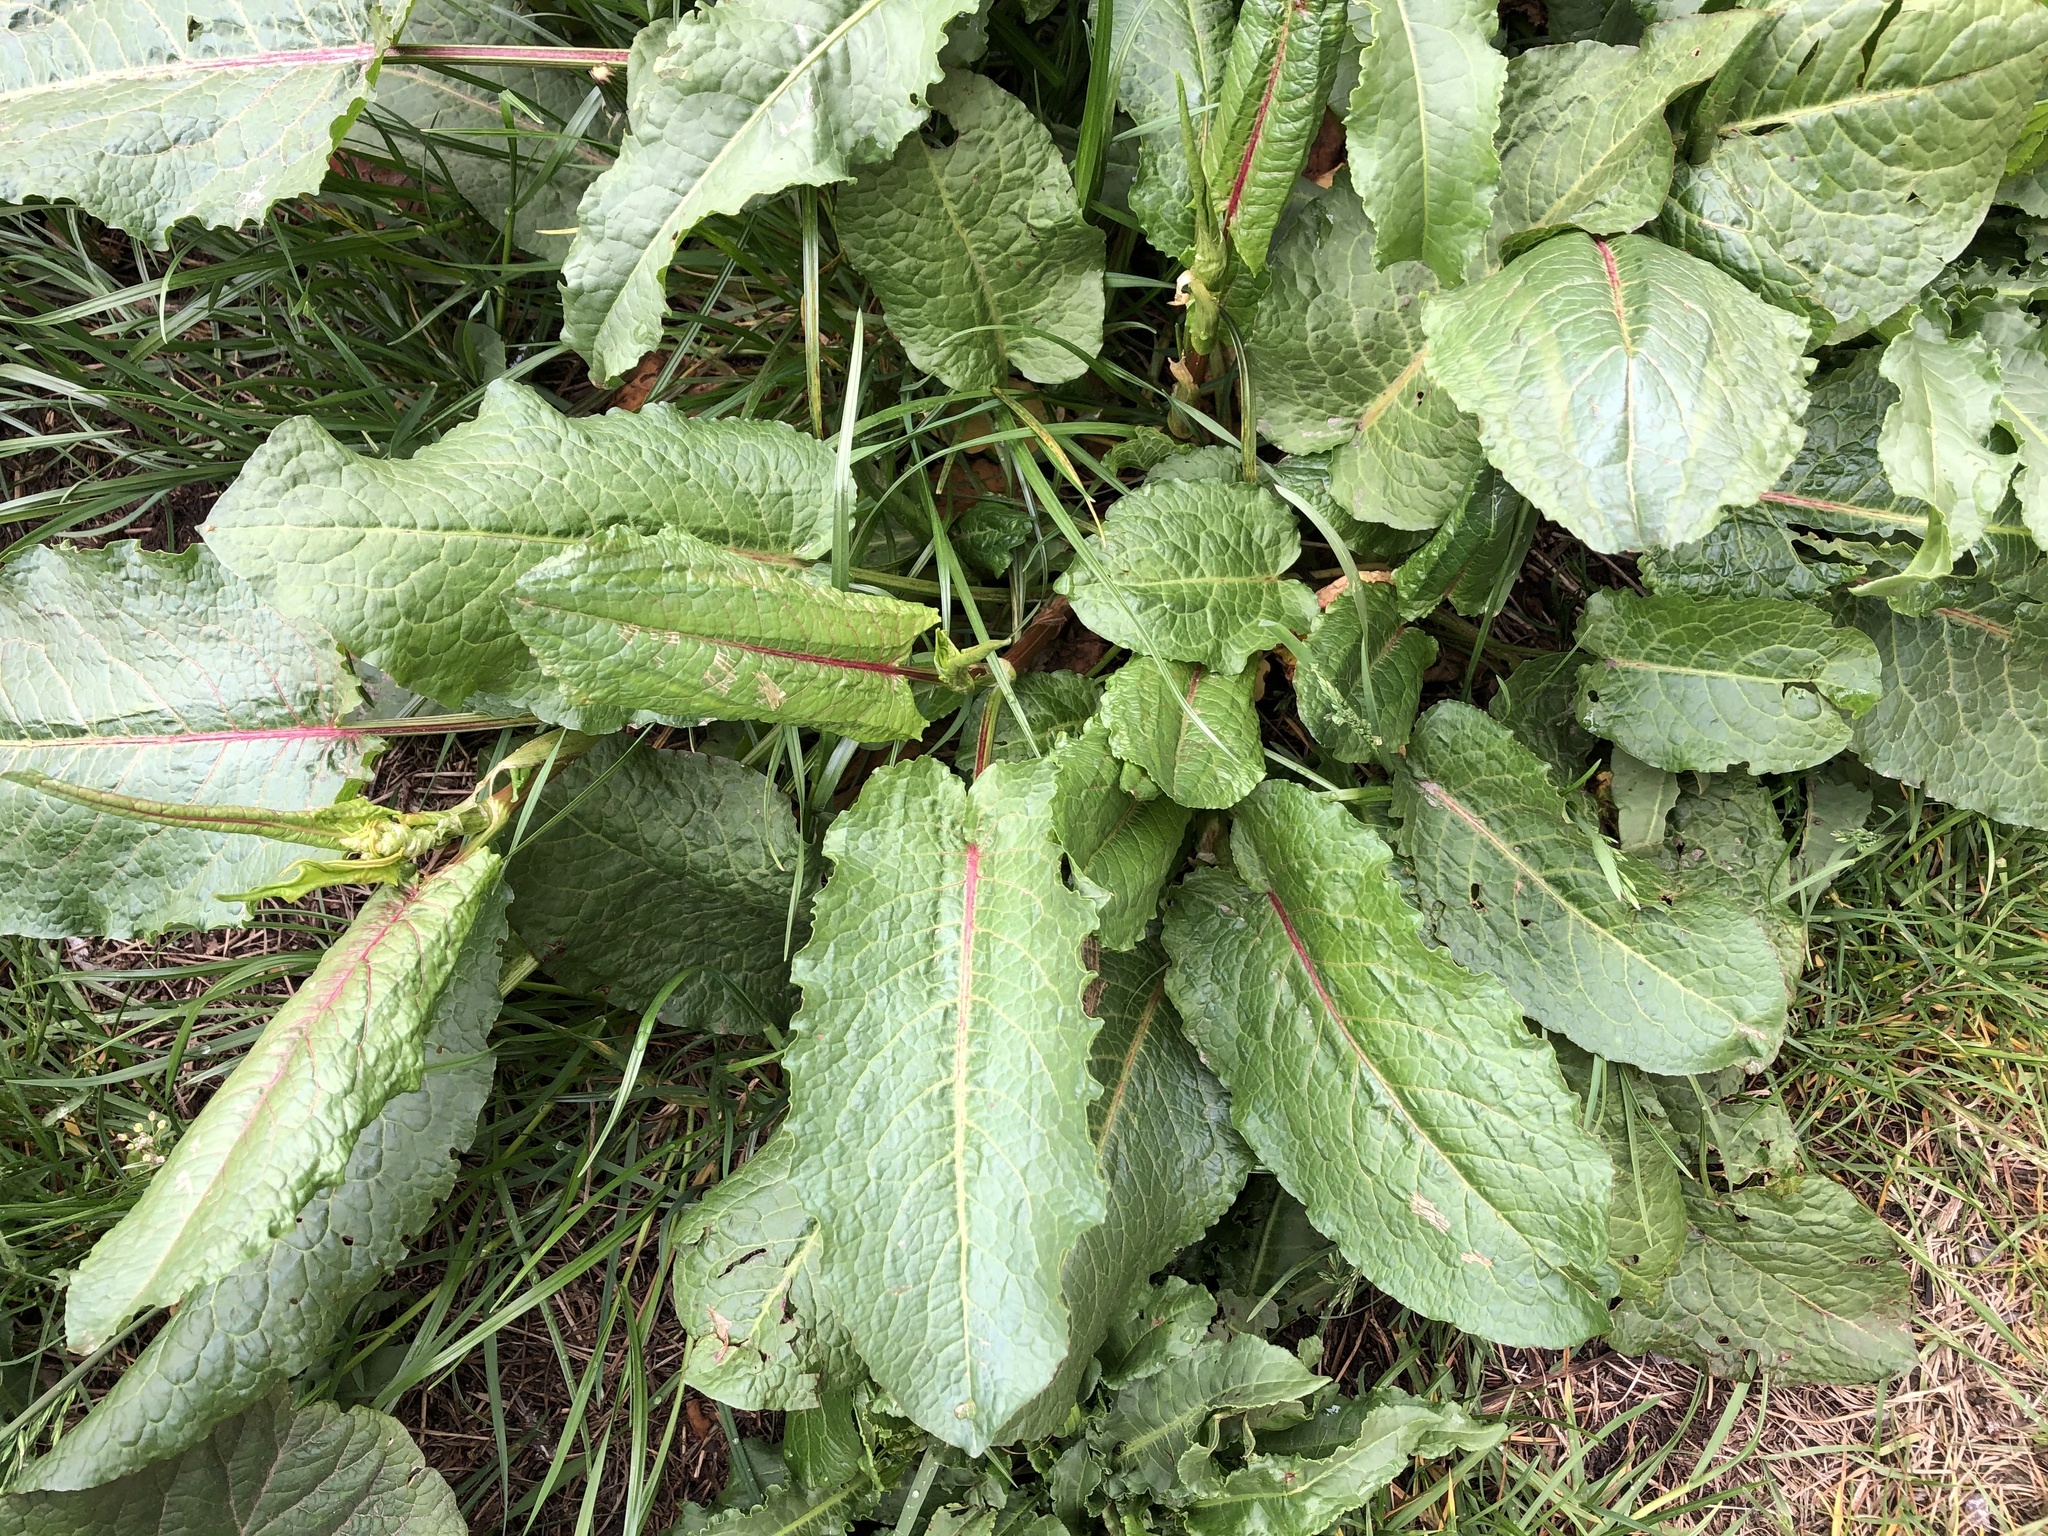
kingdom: Plantae
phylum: Tracheophyta
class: Magnoliopsida
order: Caryophyllales
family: Polygonaceae
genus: Rumex
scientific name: Rumex obtusifolius
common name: Bitter dock
